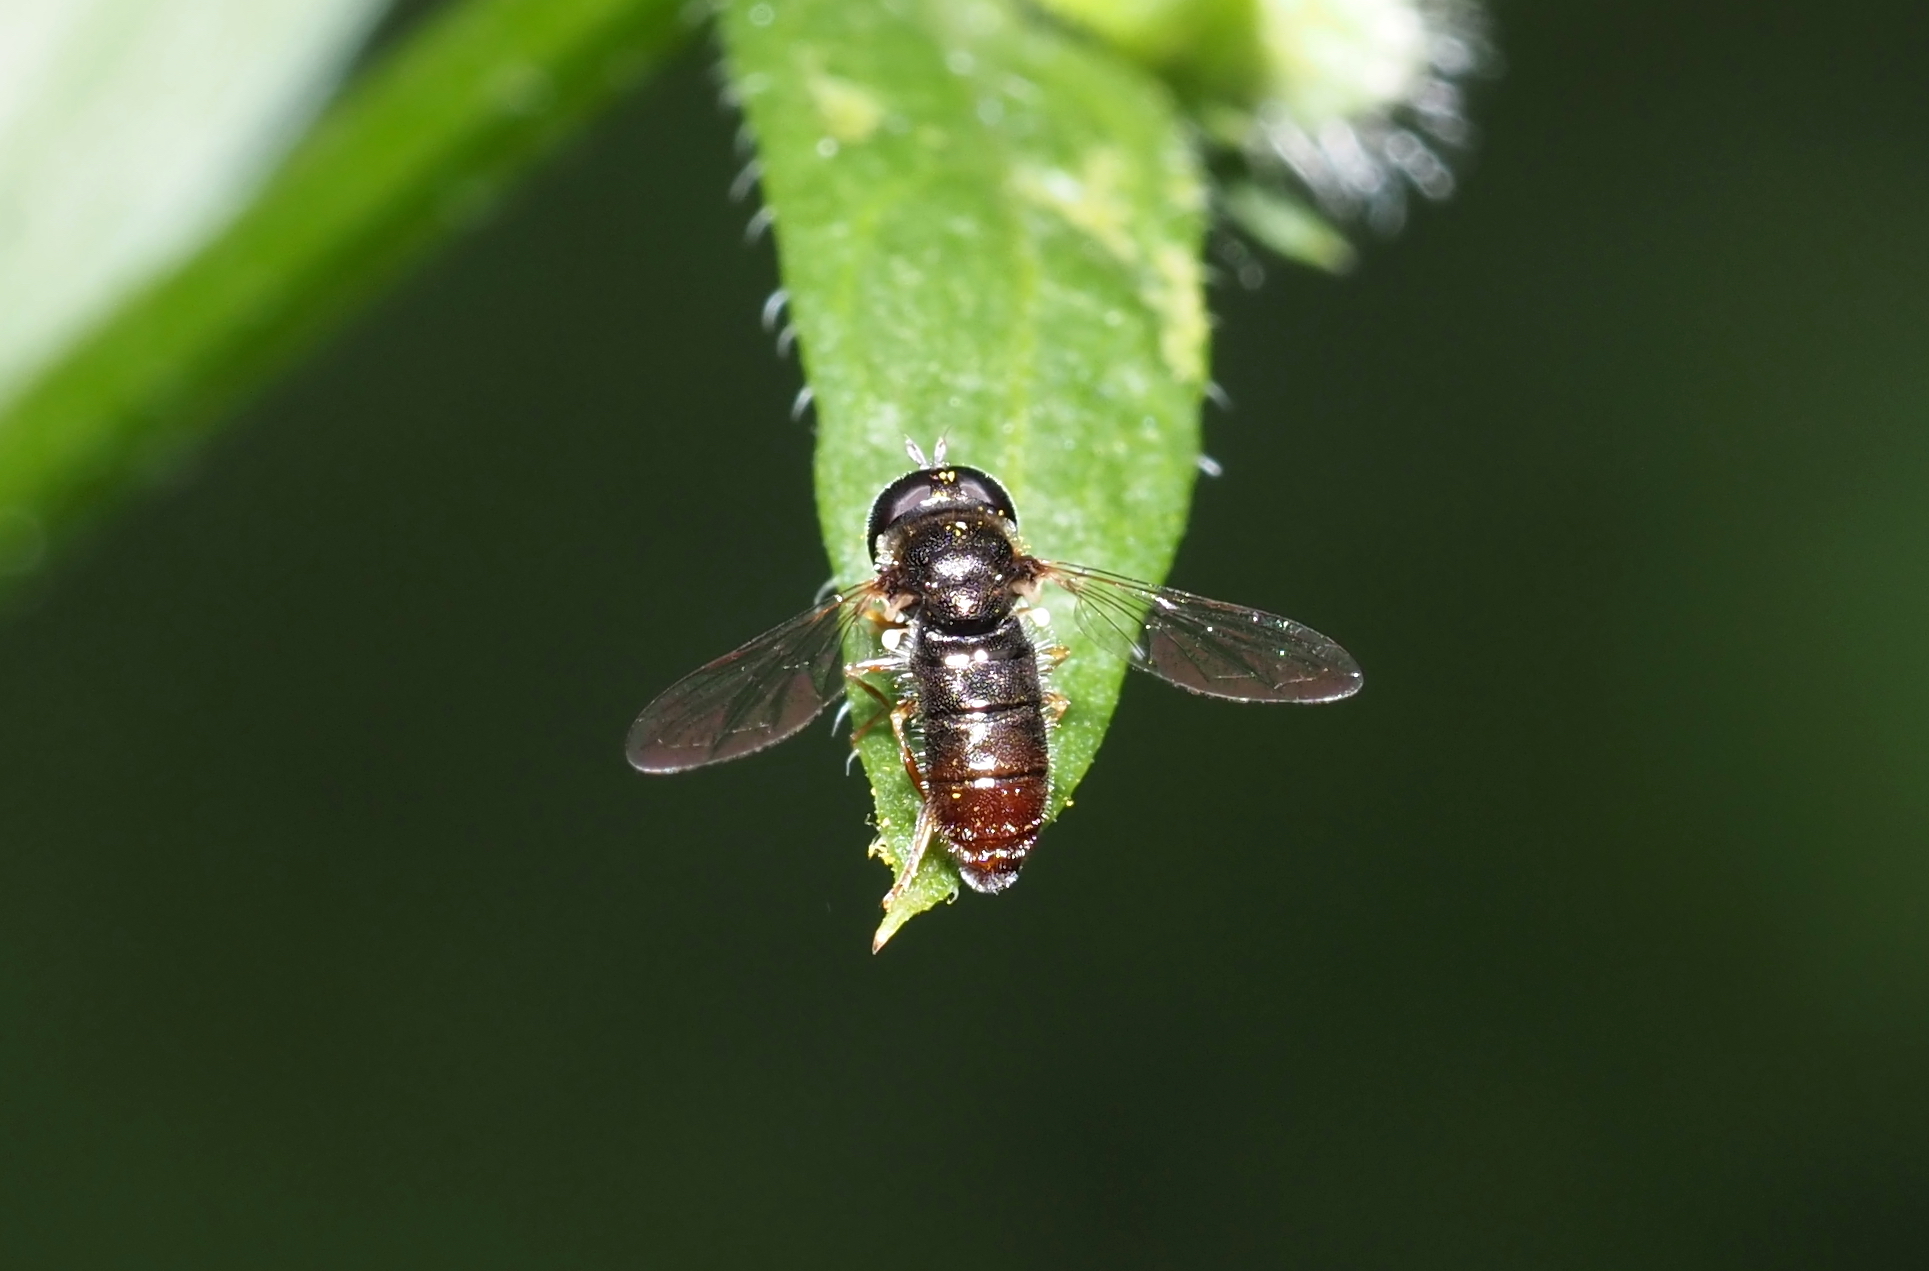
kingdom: Animalia
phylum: Arthropoda
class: Insecta
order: Diptera
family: Syrphidae
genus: Paragus
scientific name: Paragus haemorrhous
